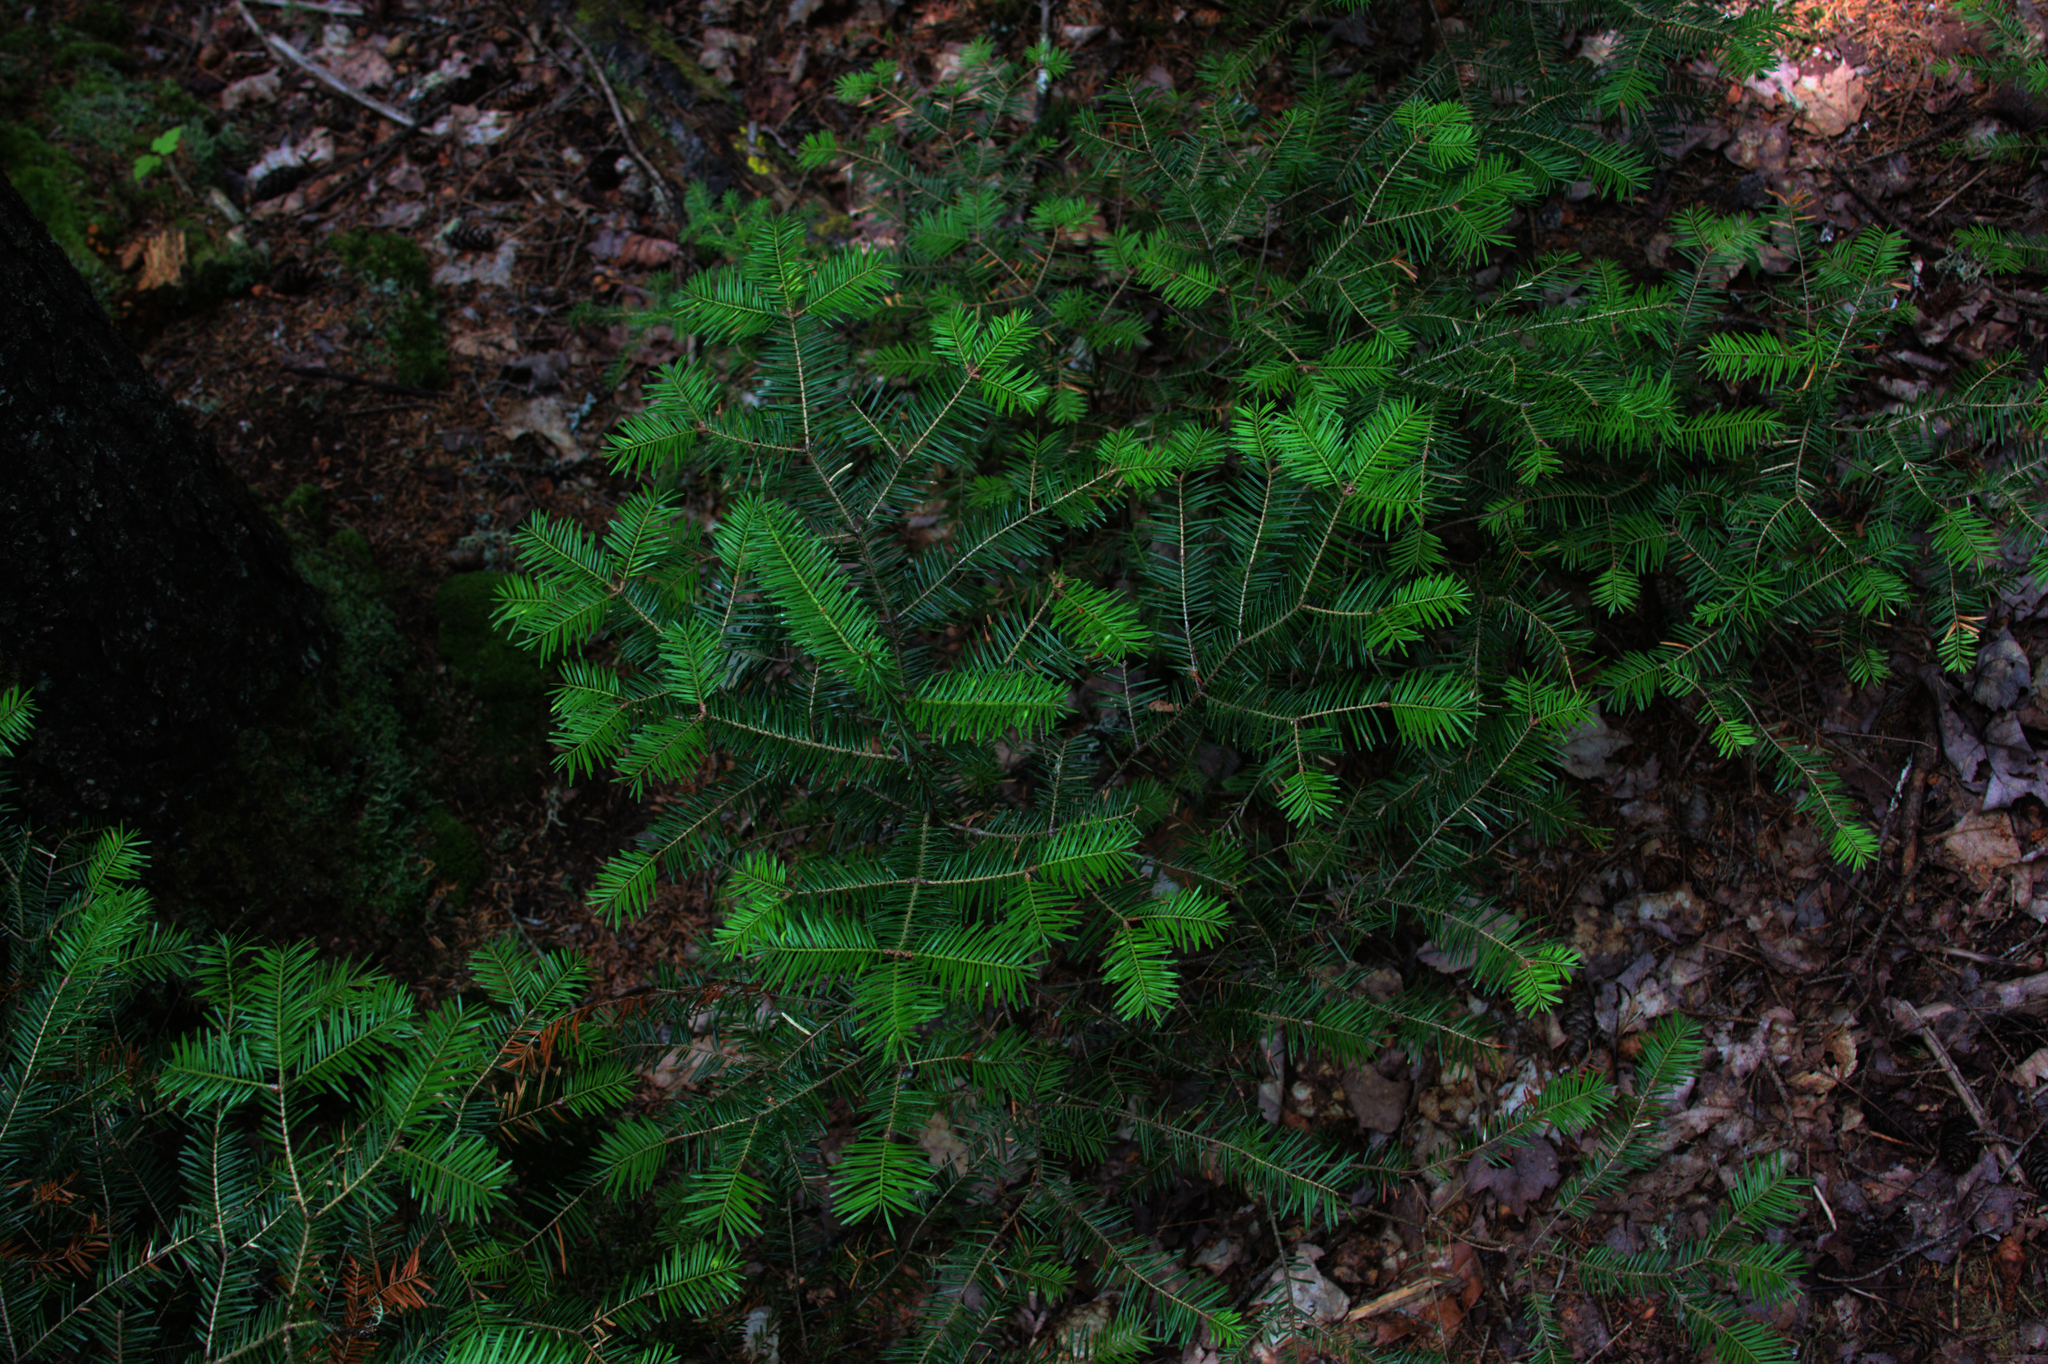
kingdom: Plantae
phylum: Tracheophyta
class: Pinopsida
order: Pinales
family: Pinaceae
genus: Abies
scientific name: Abies balsamea
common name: Balsam fir
